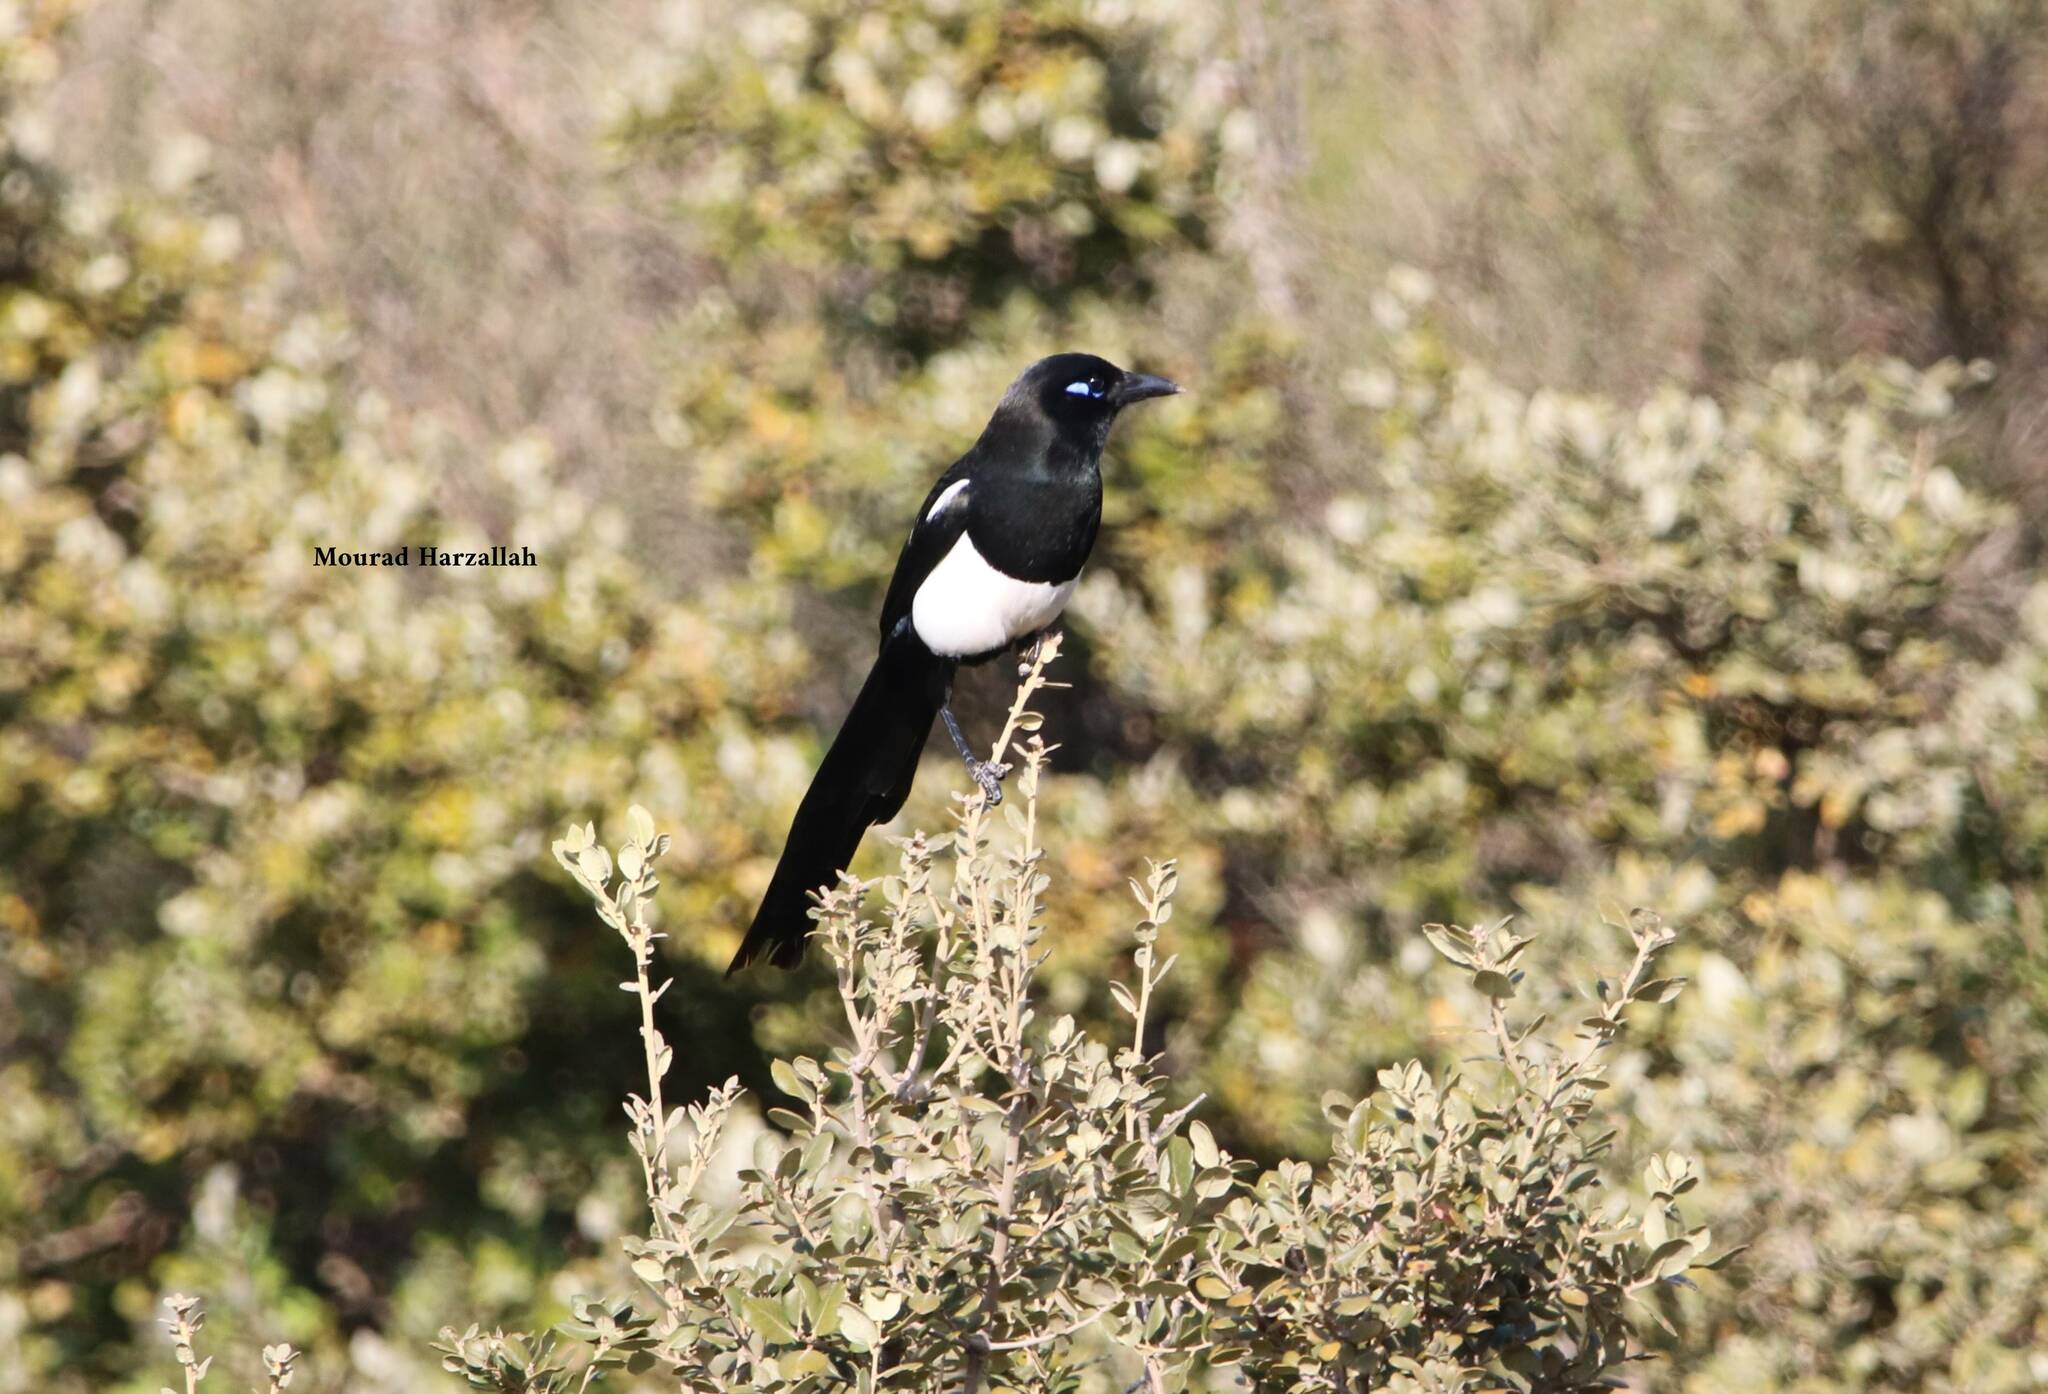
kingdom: Animalia
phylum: Chordata
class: Aves
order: Passeriformes
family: Corvidae
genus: Pica
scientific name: Pica mauritanica
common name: Maghreb magpie
